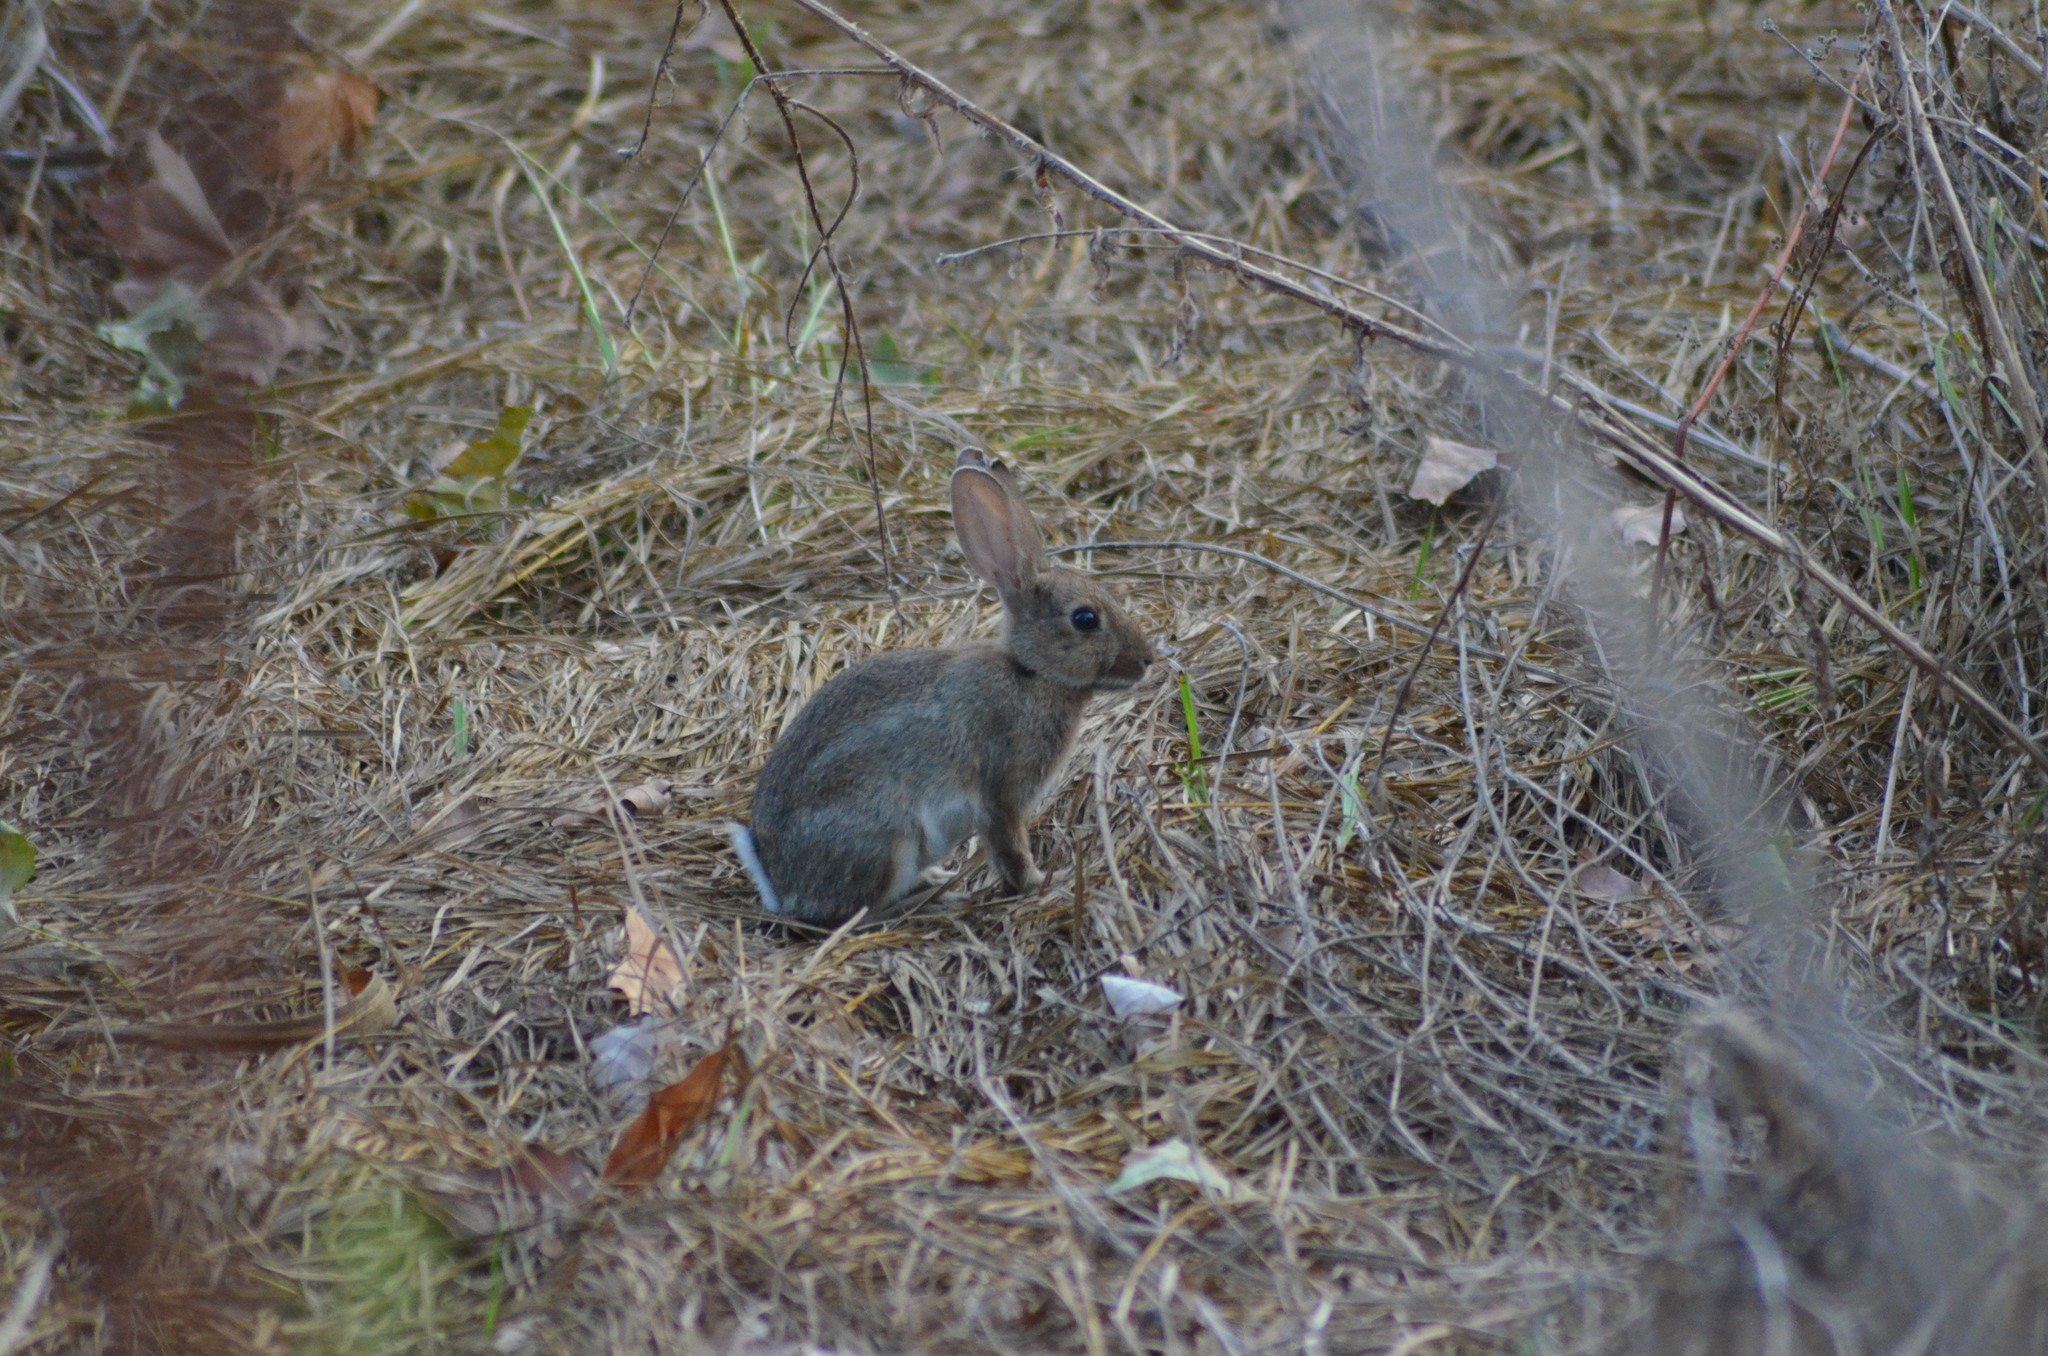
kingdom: Animalia
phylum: Chordata
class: Mammalia
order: Lagomorpha
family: Leporidae
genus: Oryctolagus
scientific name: Oryctolagus cuniculus
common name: European rabbit
